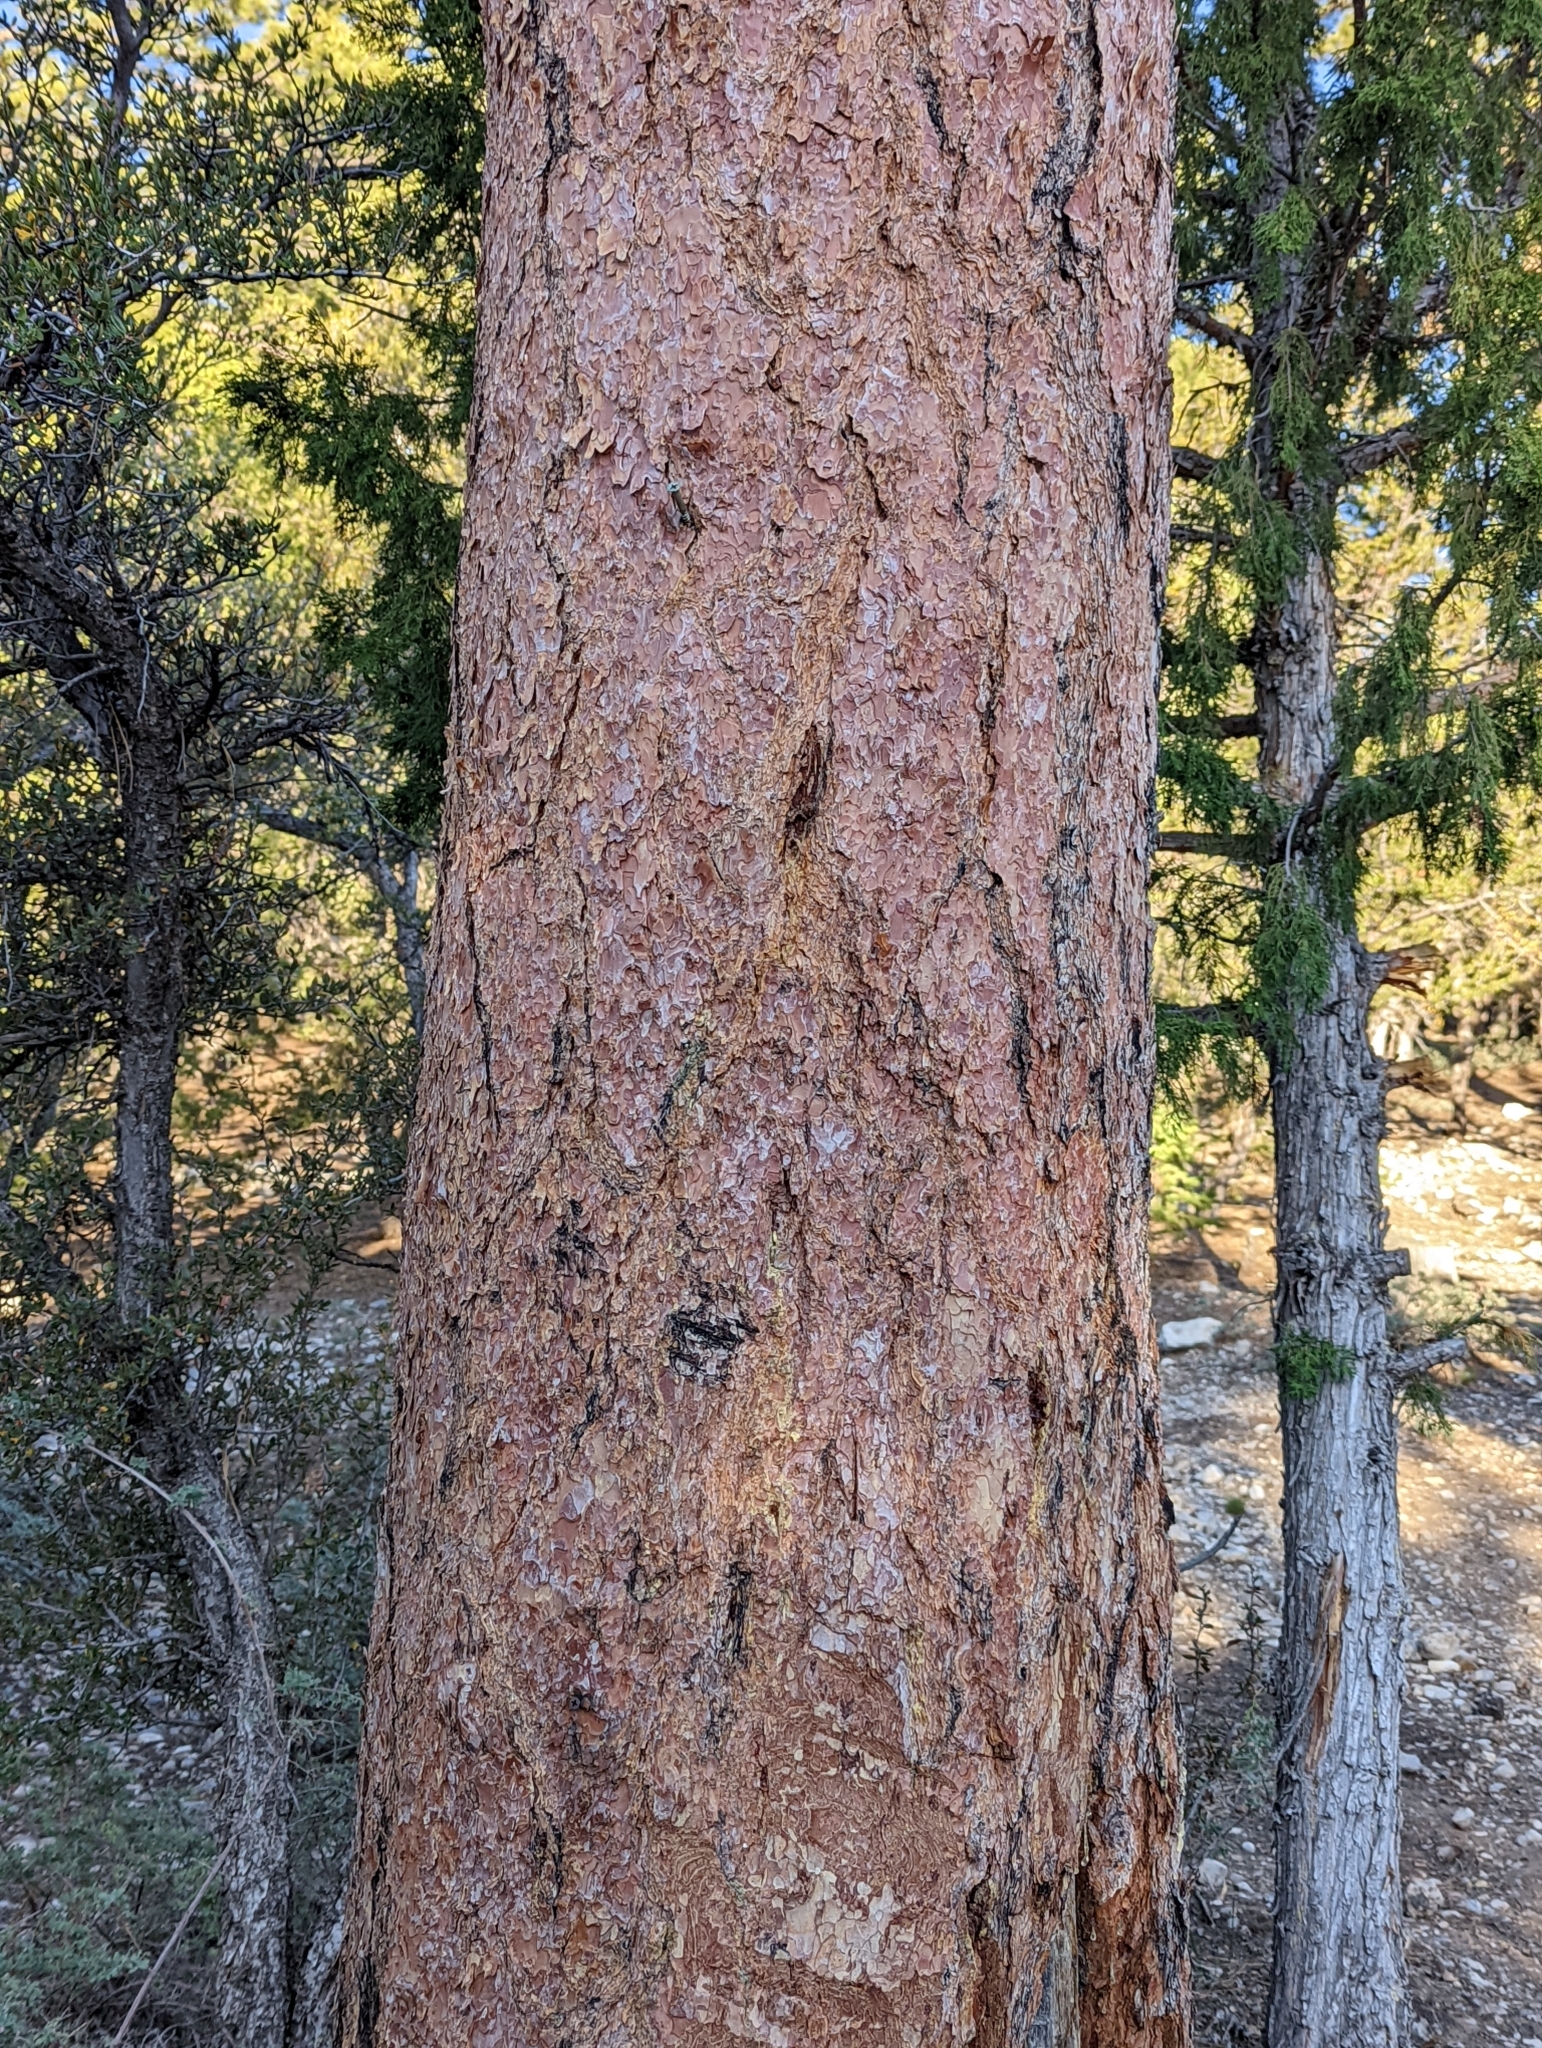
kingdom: Plantae
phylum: Tracheophyta
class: Pinopsida
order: Pinales
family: Pinaceae
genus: Pinus
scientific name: Pinus ponderosa
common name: Western yellow-pine
